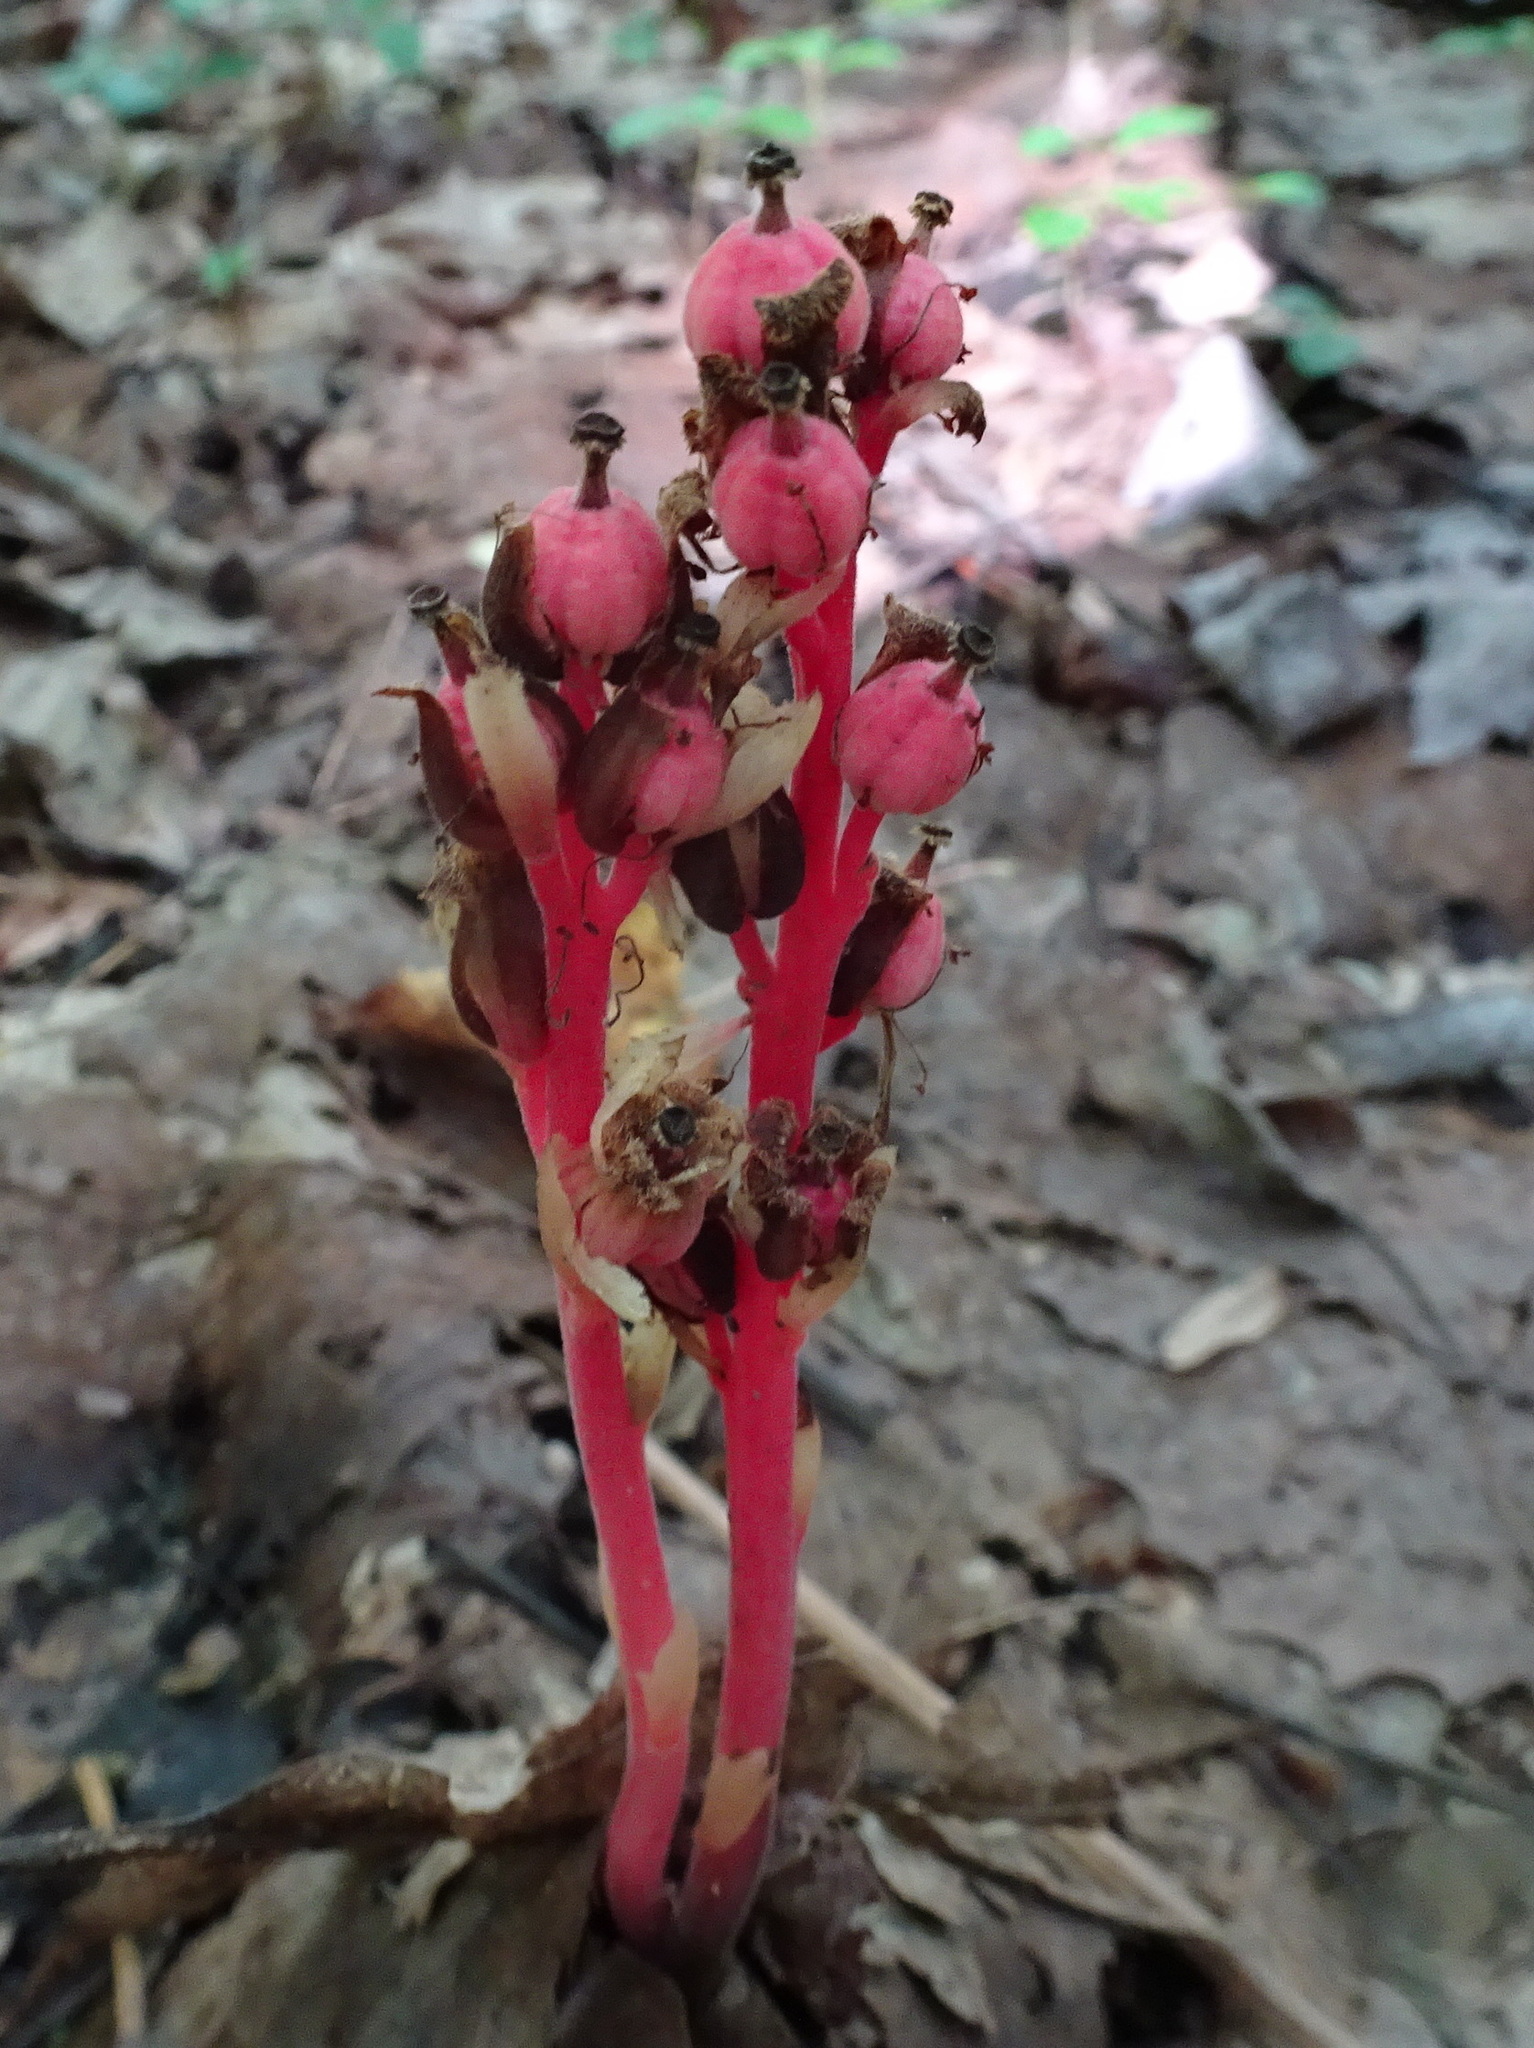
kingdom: Plantae
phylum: Tracheophyta
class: Magnoliopsida
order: Ericales
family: Ericaceae
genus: Hypopitys
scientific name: Hypopitys monotropa
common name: Yellow bird's-nest
